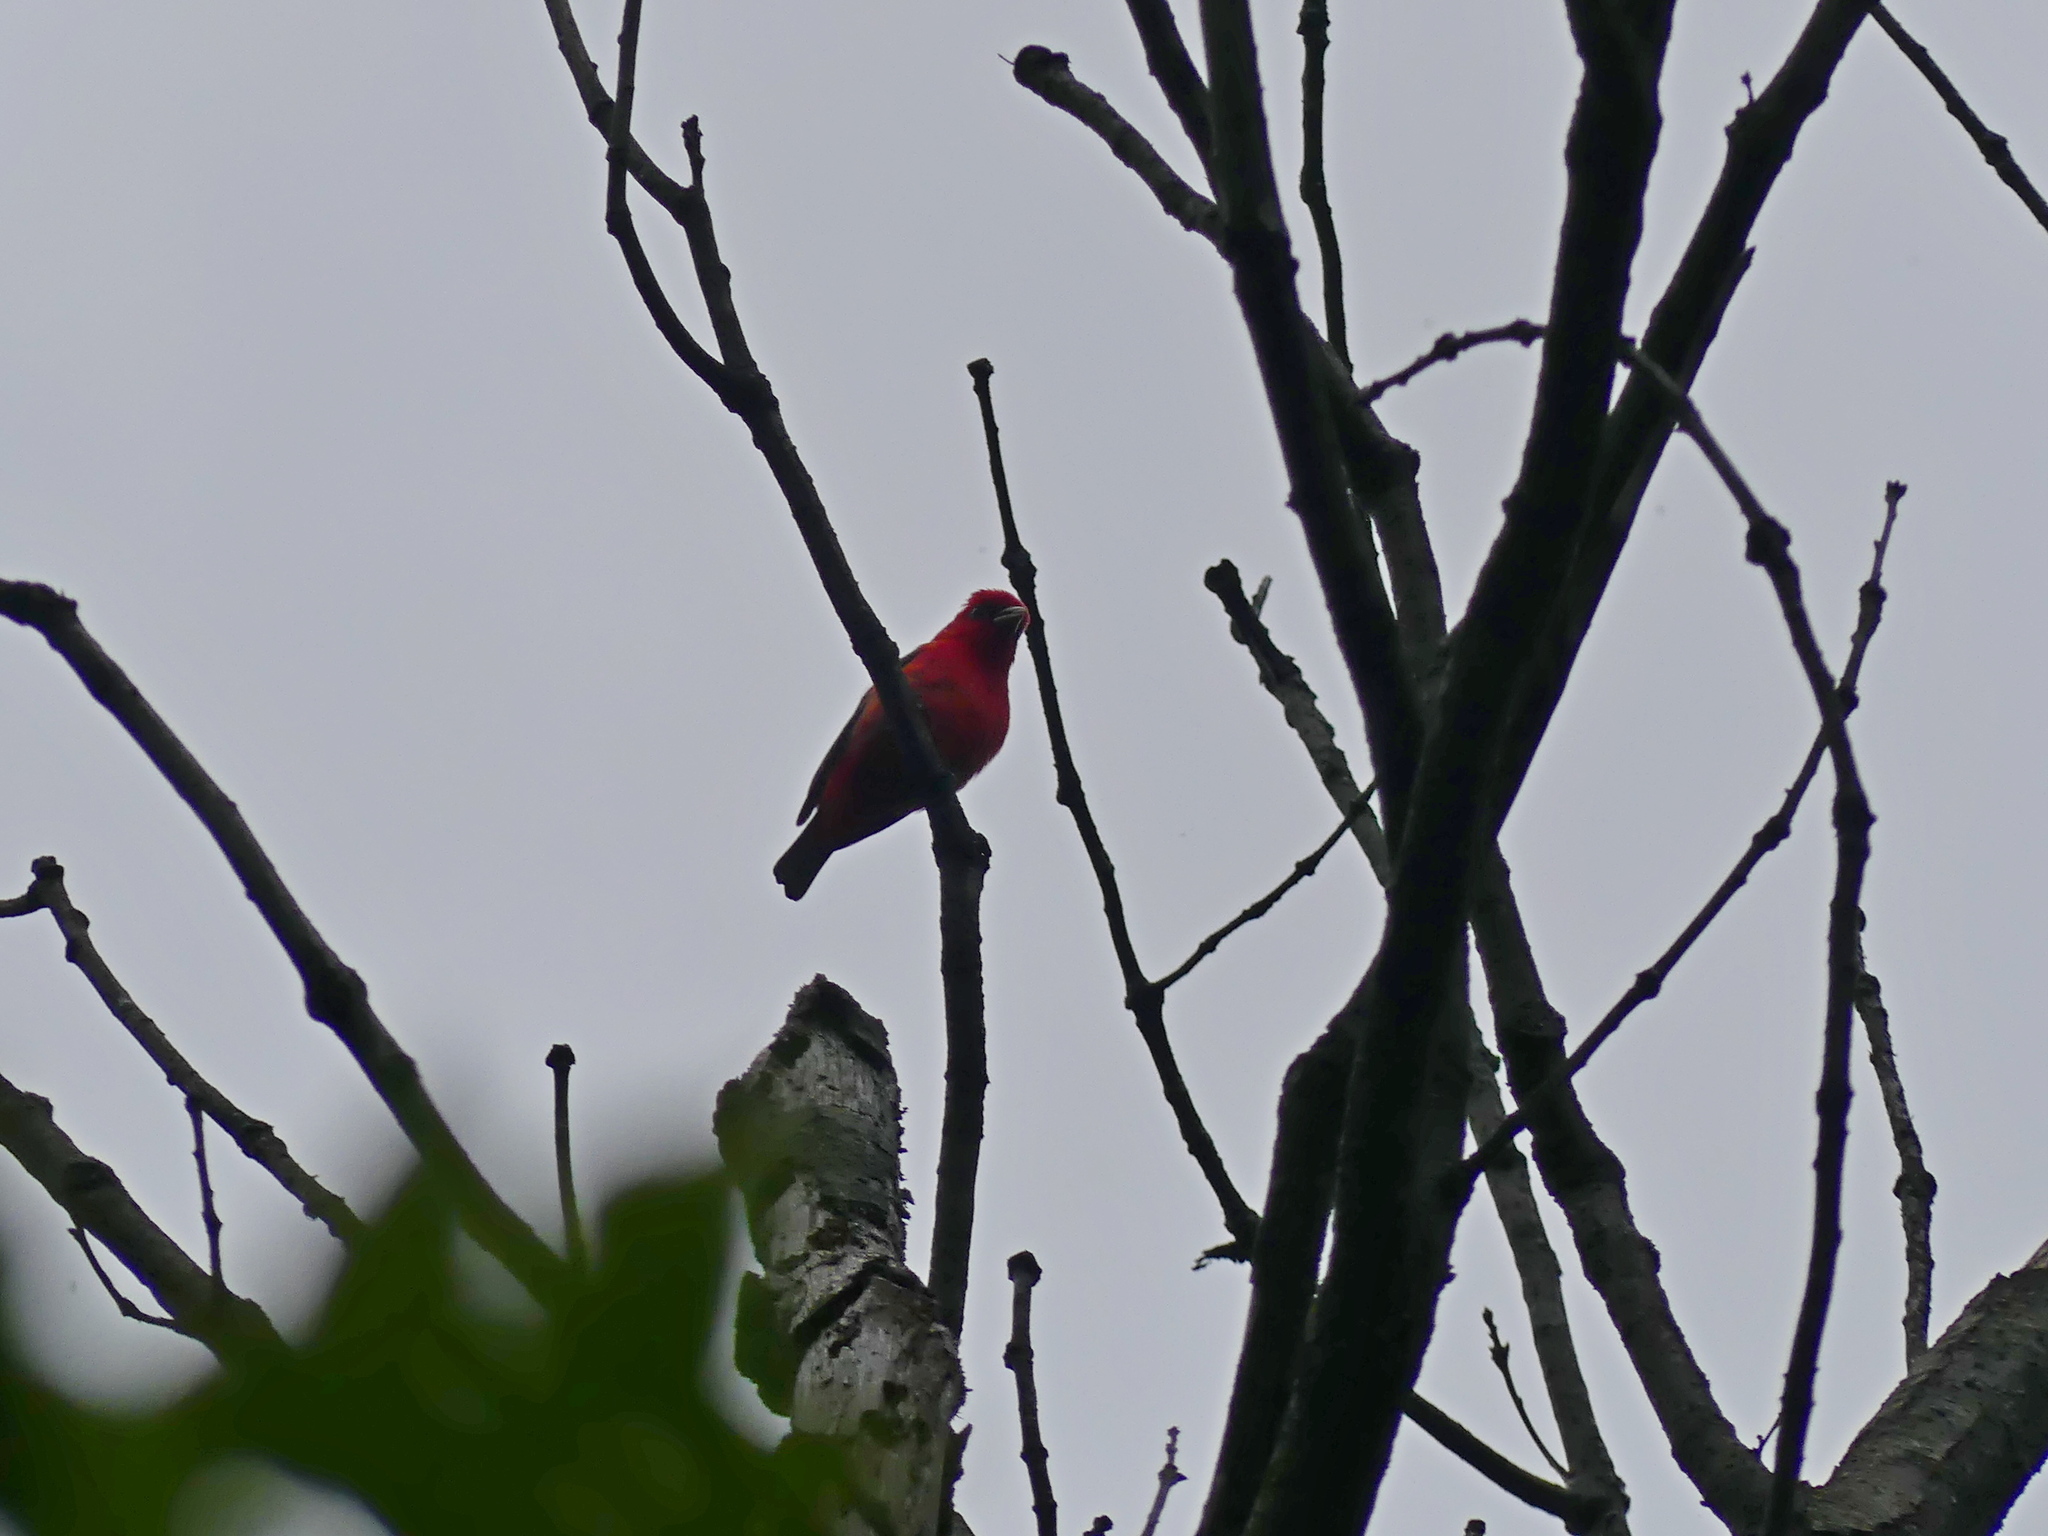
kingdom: Animalia
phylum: Chordata
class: Aves
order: Passeriformes
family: Cardinalidae
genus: Piranga
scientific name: Piranga olivacea
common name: Scarlet tanager
